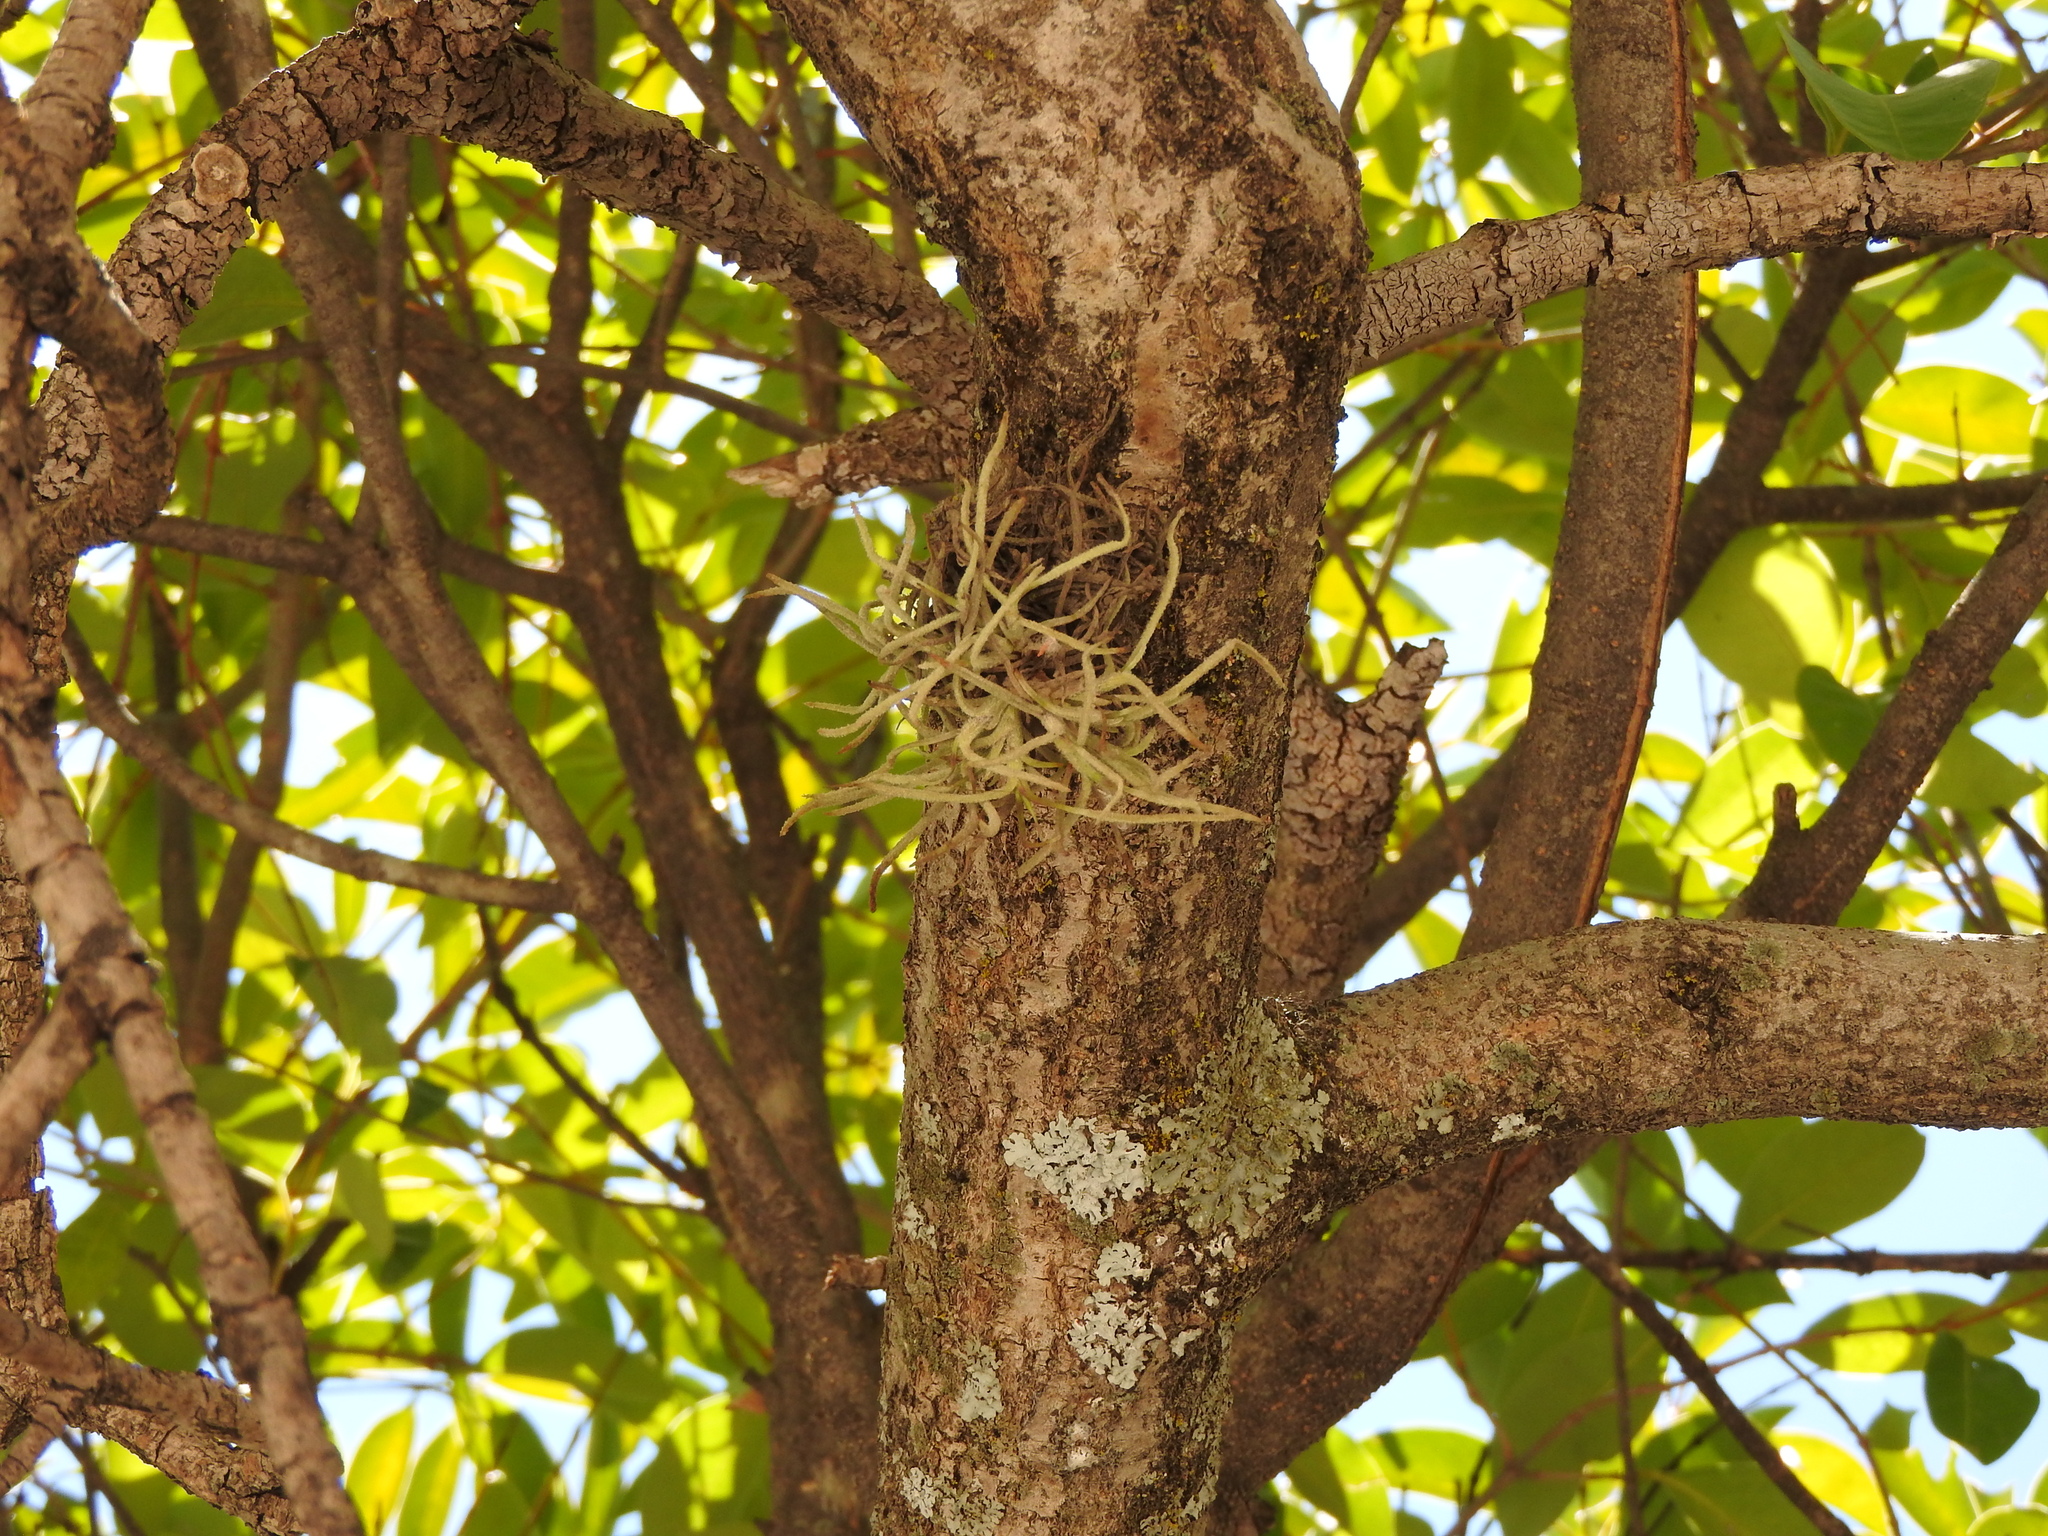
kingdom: Plantae
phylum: Tracheophyta
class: Liliopsida
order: Poales
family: Bromeliaceae
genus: Tillandsia
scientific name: Tillandsia recurvata
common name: Small ballmoss
